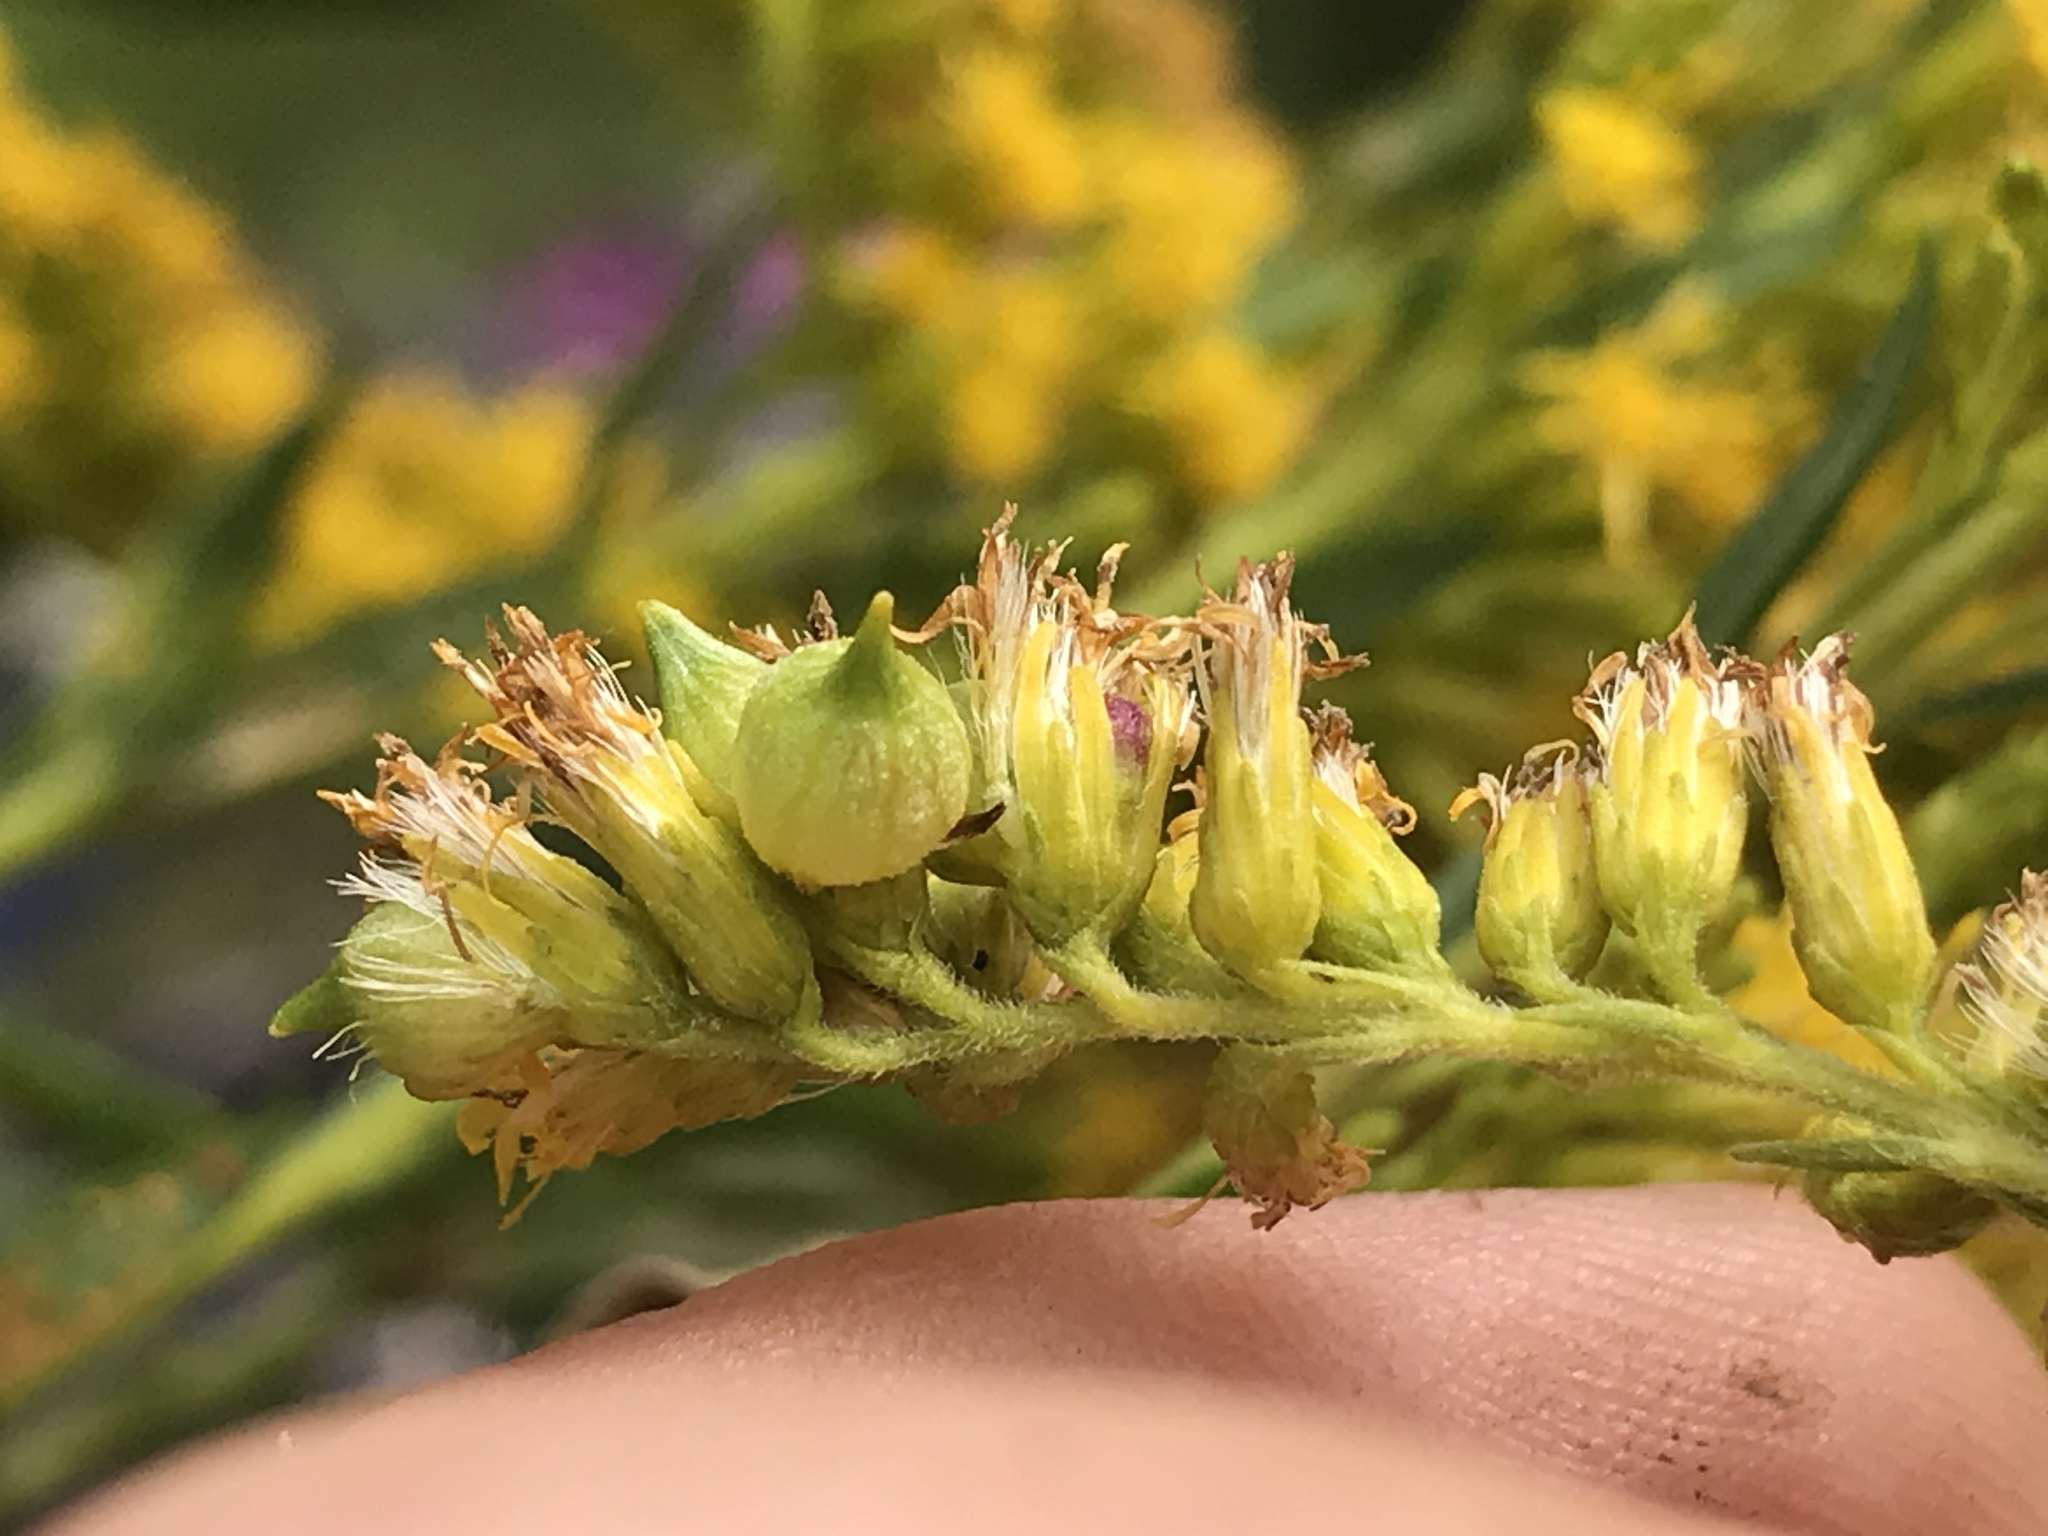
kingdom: Animalia
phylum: Arthropoda
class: Insecta
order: Diptera
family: Cecidomyiidae
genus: Schizomyia
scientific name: Schizomyia racemicola
